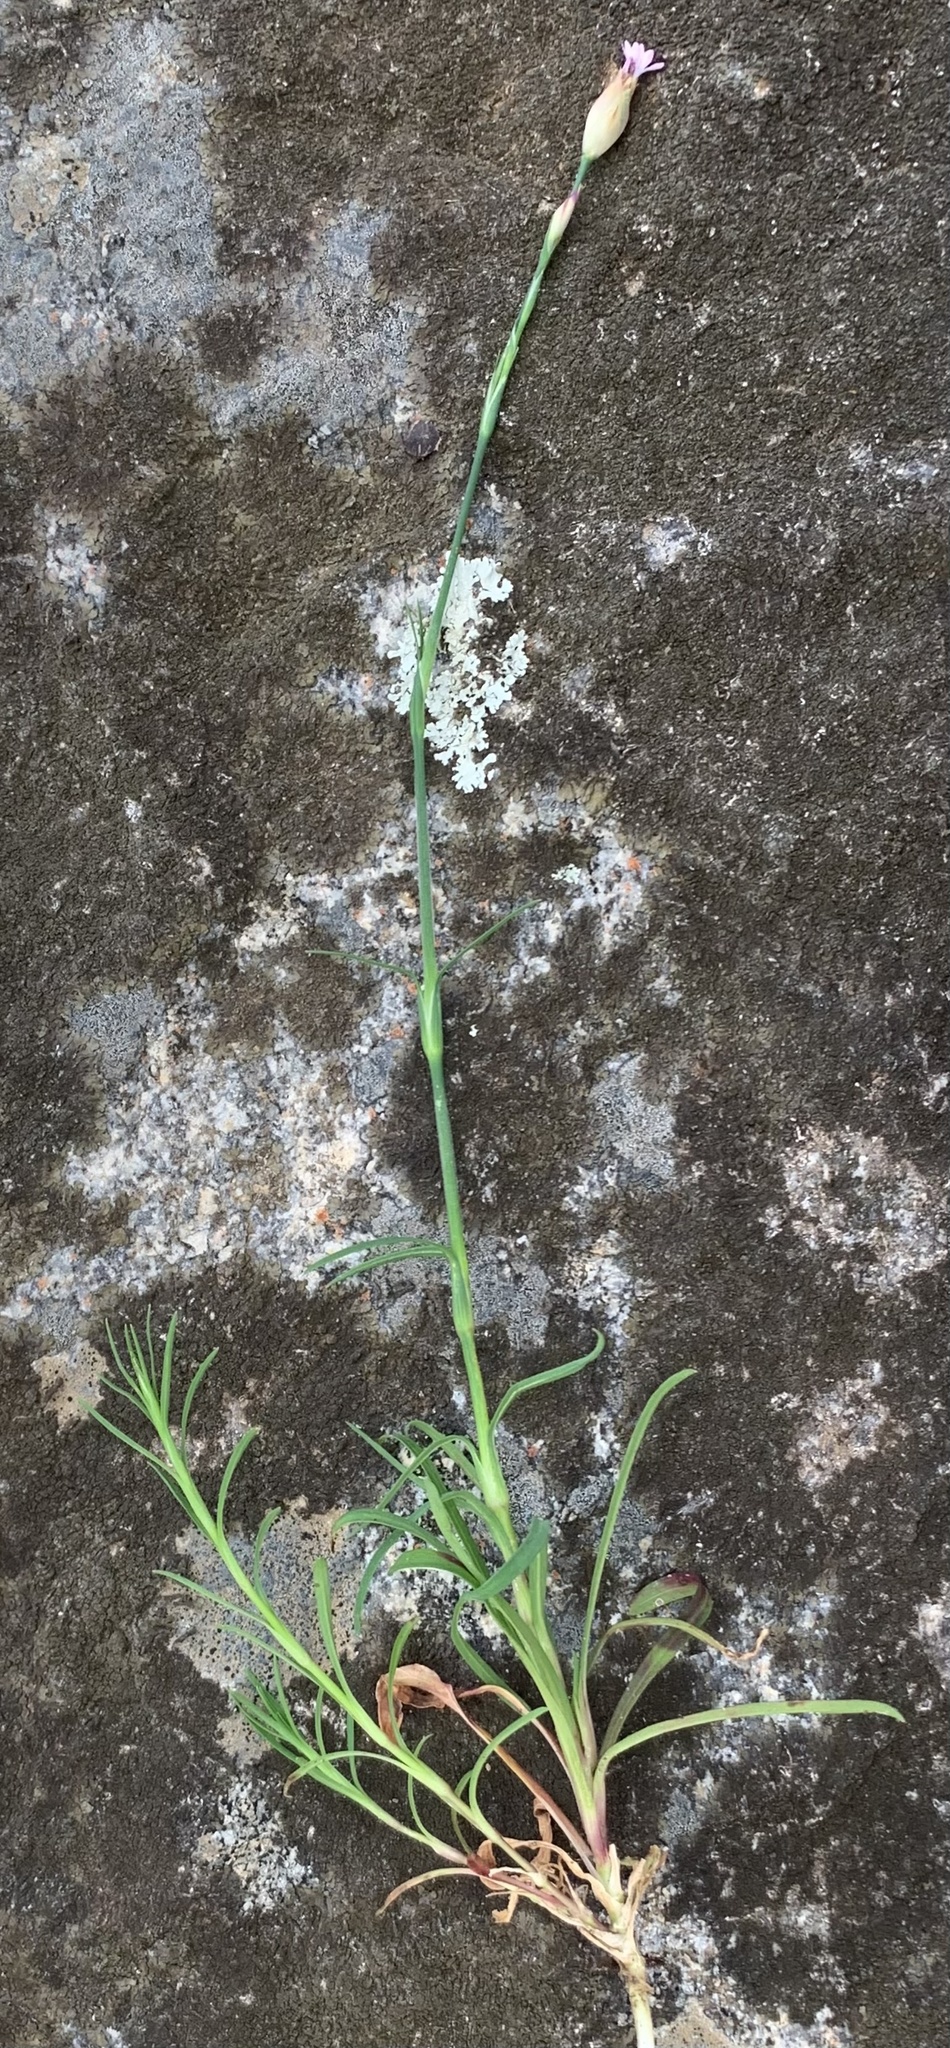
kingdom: Plantae
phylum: Tracheophyta
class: Magnoliopsida
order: Caryophyllales
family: Caryophyllaceae
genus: Petrorhagia
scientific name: Petrorhagia dubia
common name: Hairypink
